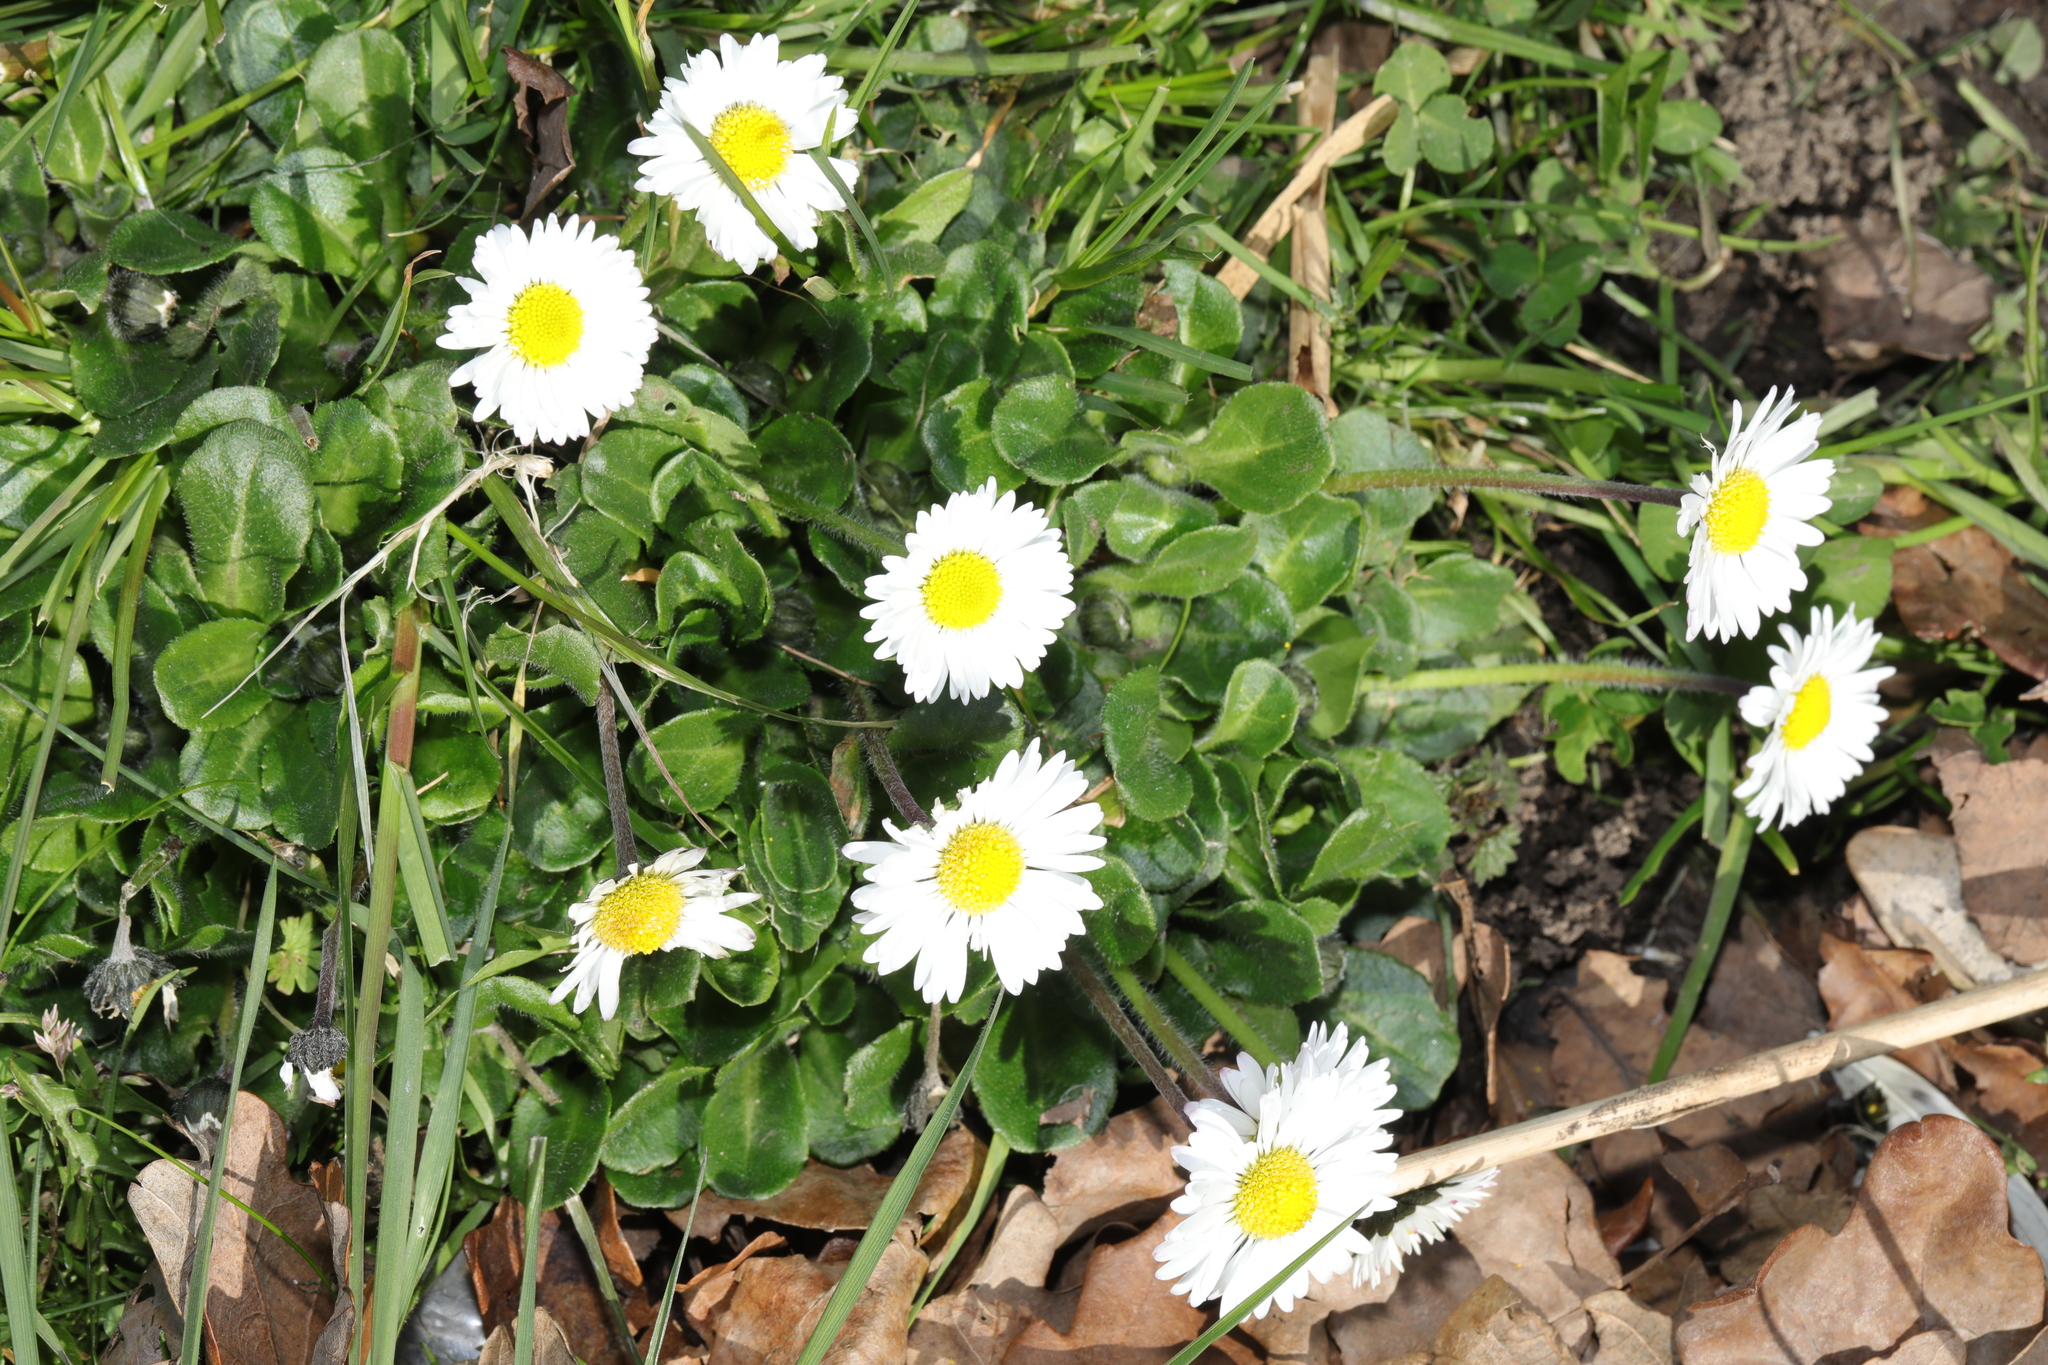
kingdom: Plantae
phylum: Tracheophyta
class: Magnoliopsida
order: Asterales
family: Asteraceae
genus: Bellis
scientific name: Bellis perennis
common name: Lawndaisy
